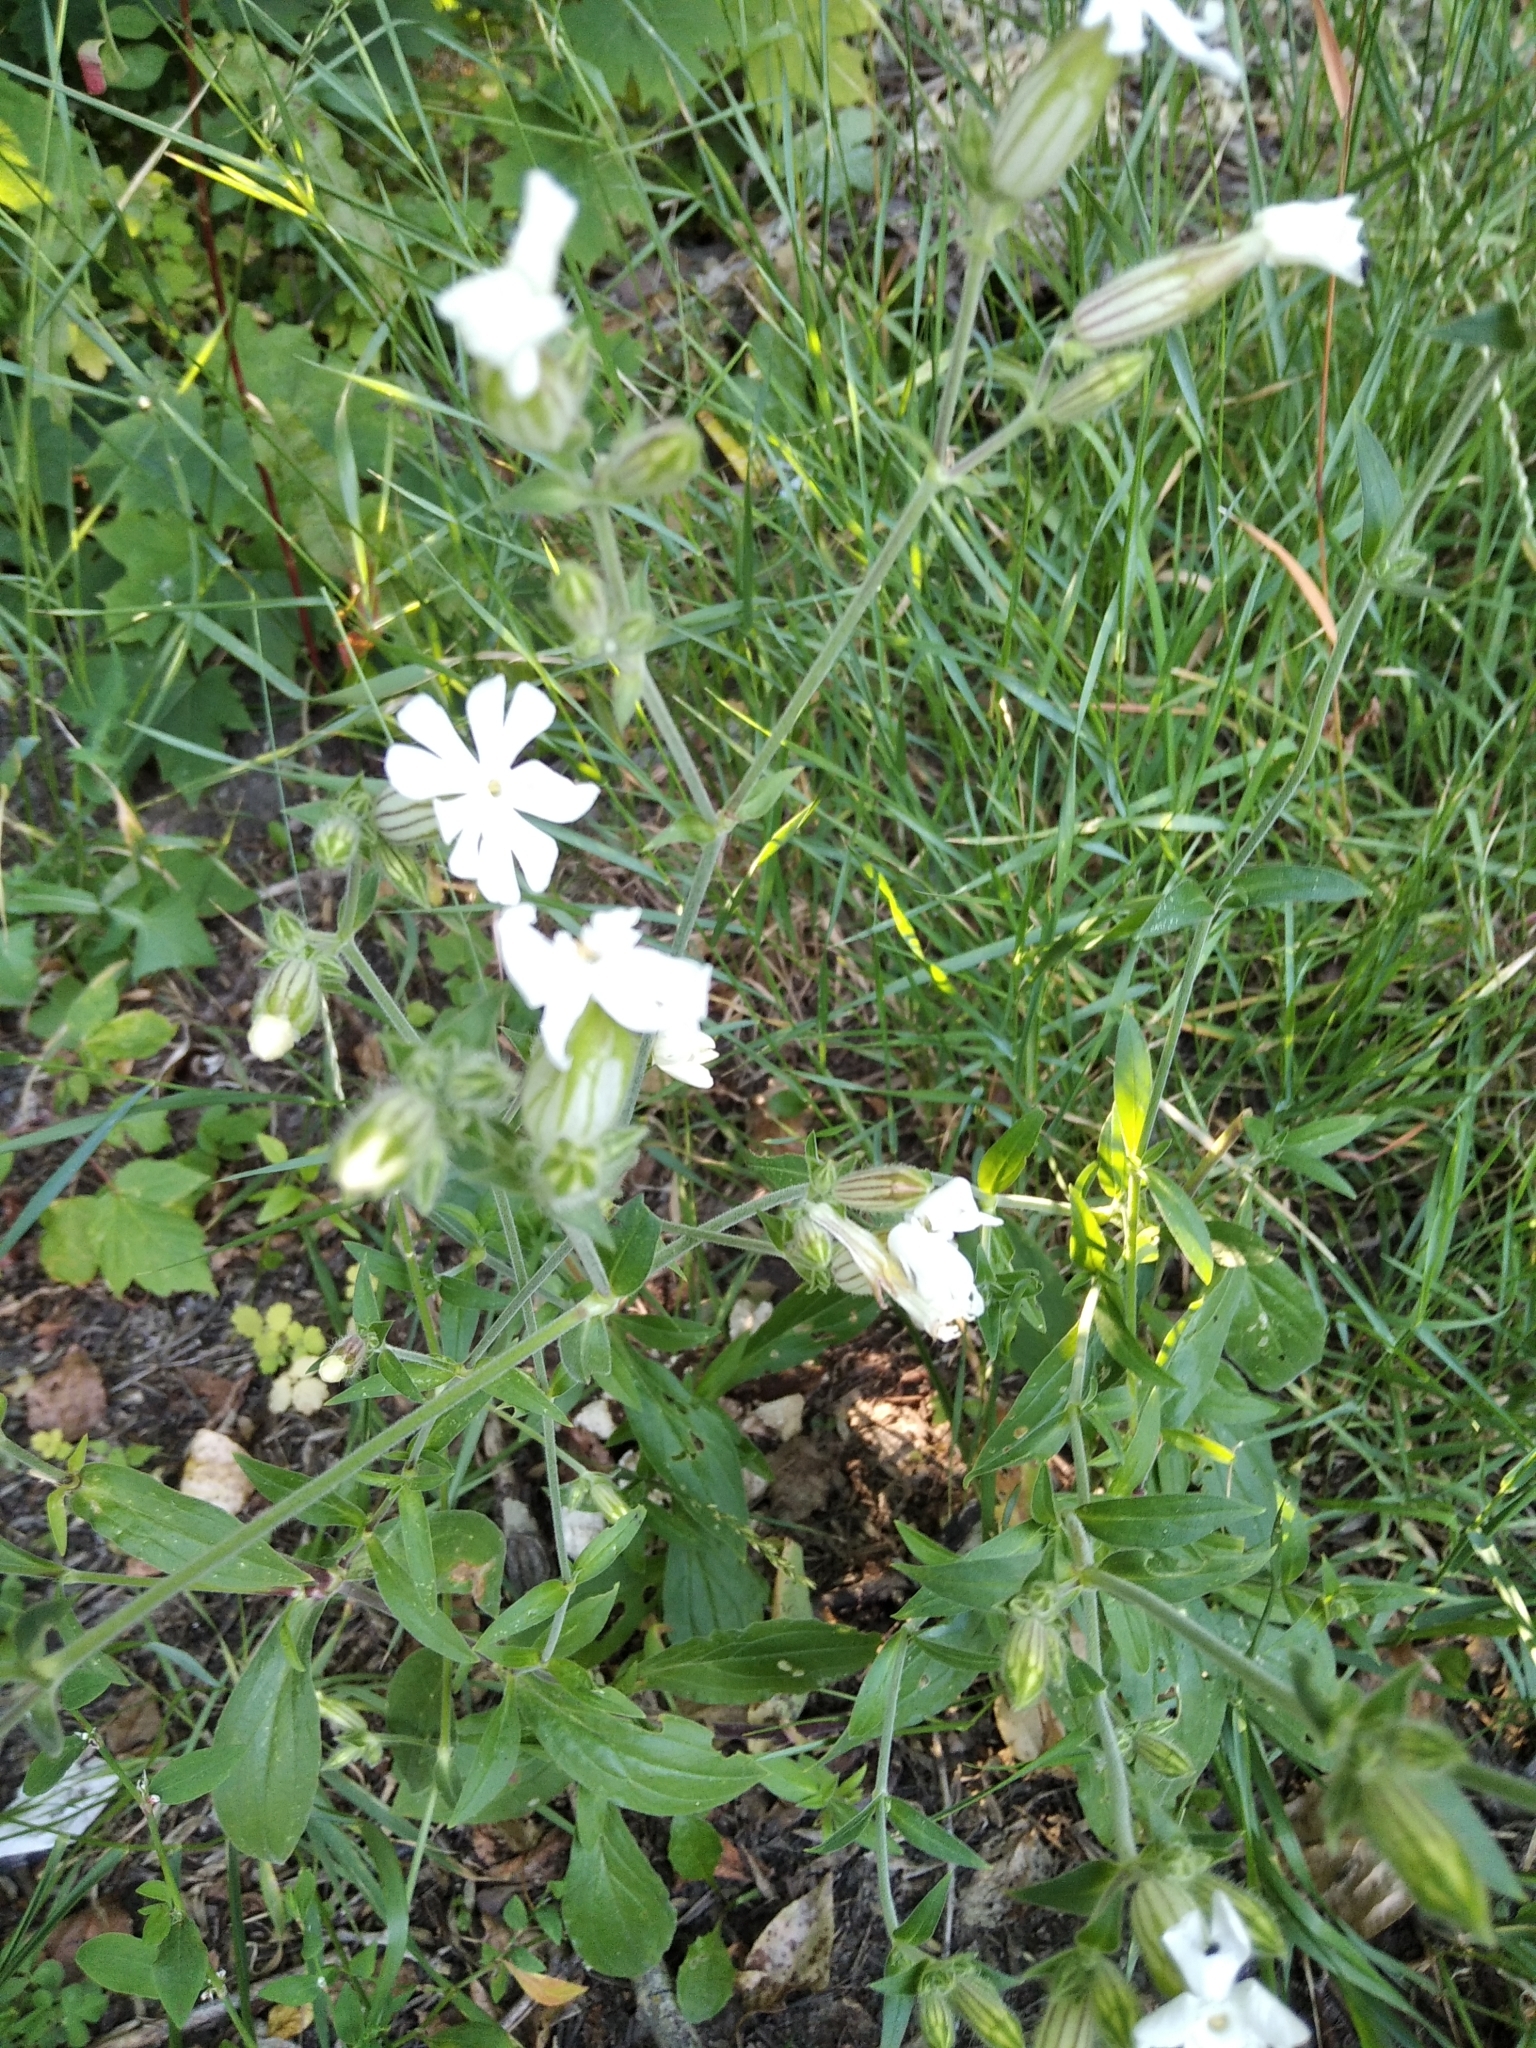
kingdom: Plantae
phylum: Tracheophyta
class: Magnoliopsida
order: Caryophyllales
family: Caryophyllaceae
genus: Silene
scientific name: Silene latifolia
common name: White campion
